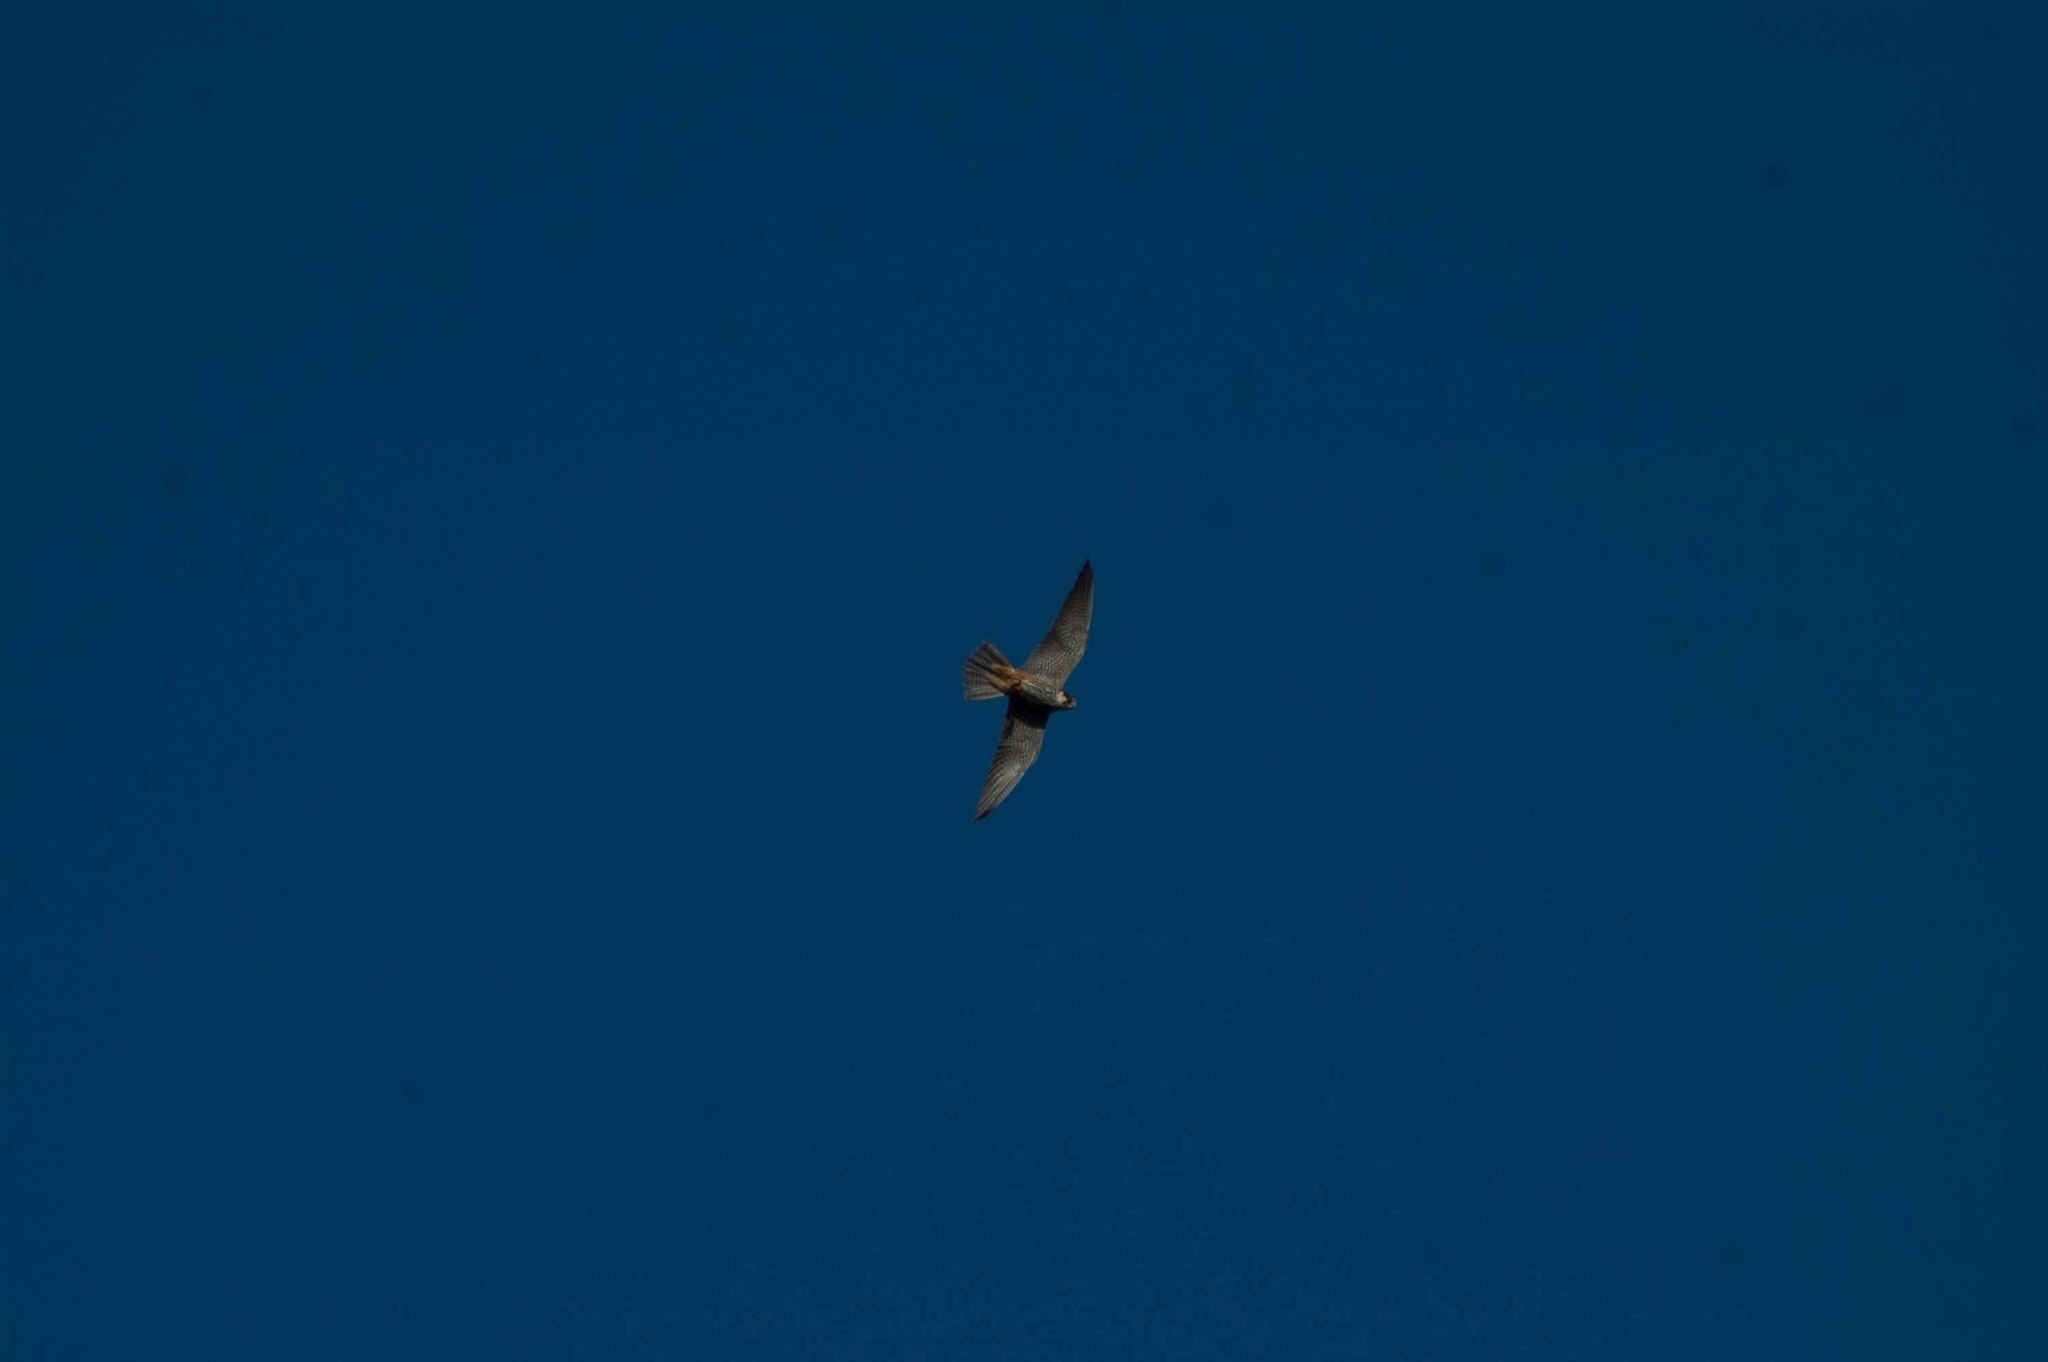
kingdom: Animalia
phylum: Chordata
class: Aves
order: Falconiformes
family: Falconidae
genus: Falco
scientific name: Falco subbuteo
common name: Eurasian hobby
